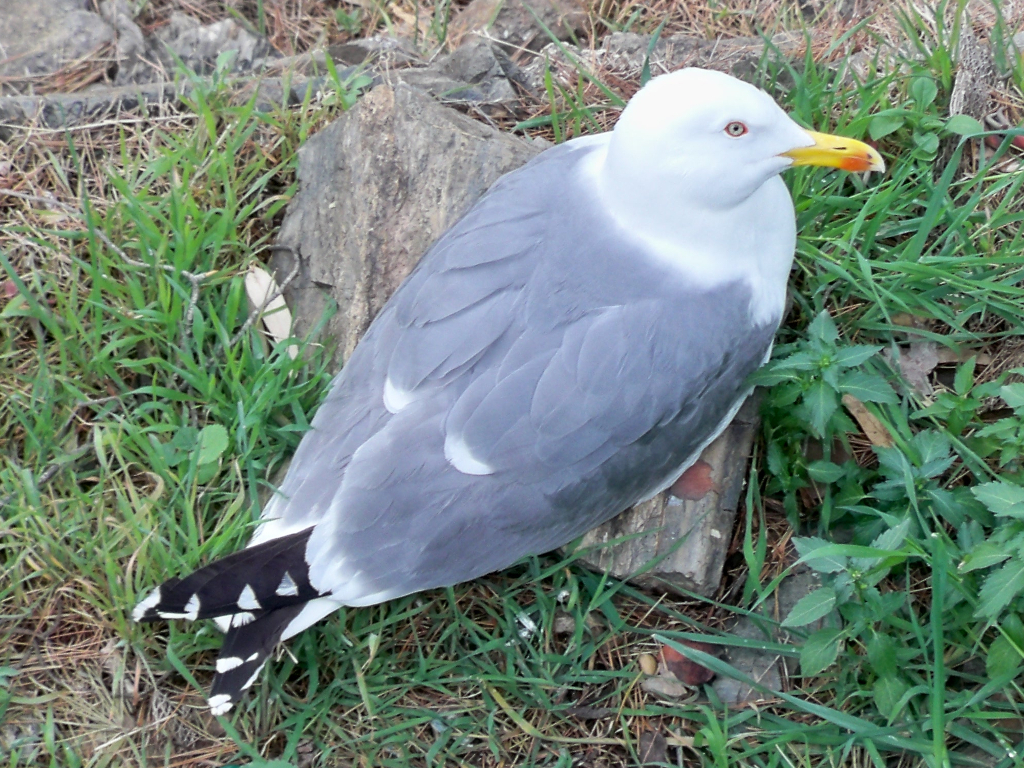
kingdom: Animalia
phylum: Chordata
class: Aves
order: Charadriiformes
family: Laridae
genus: Larus
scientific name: Larus michahellis
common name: Yellow-legged gull
